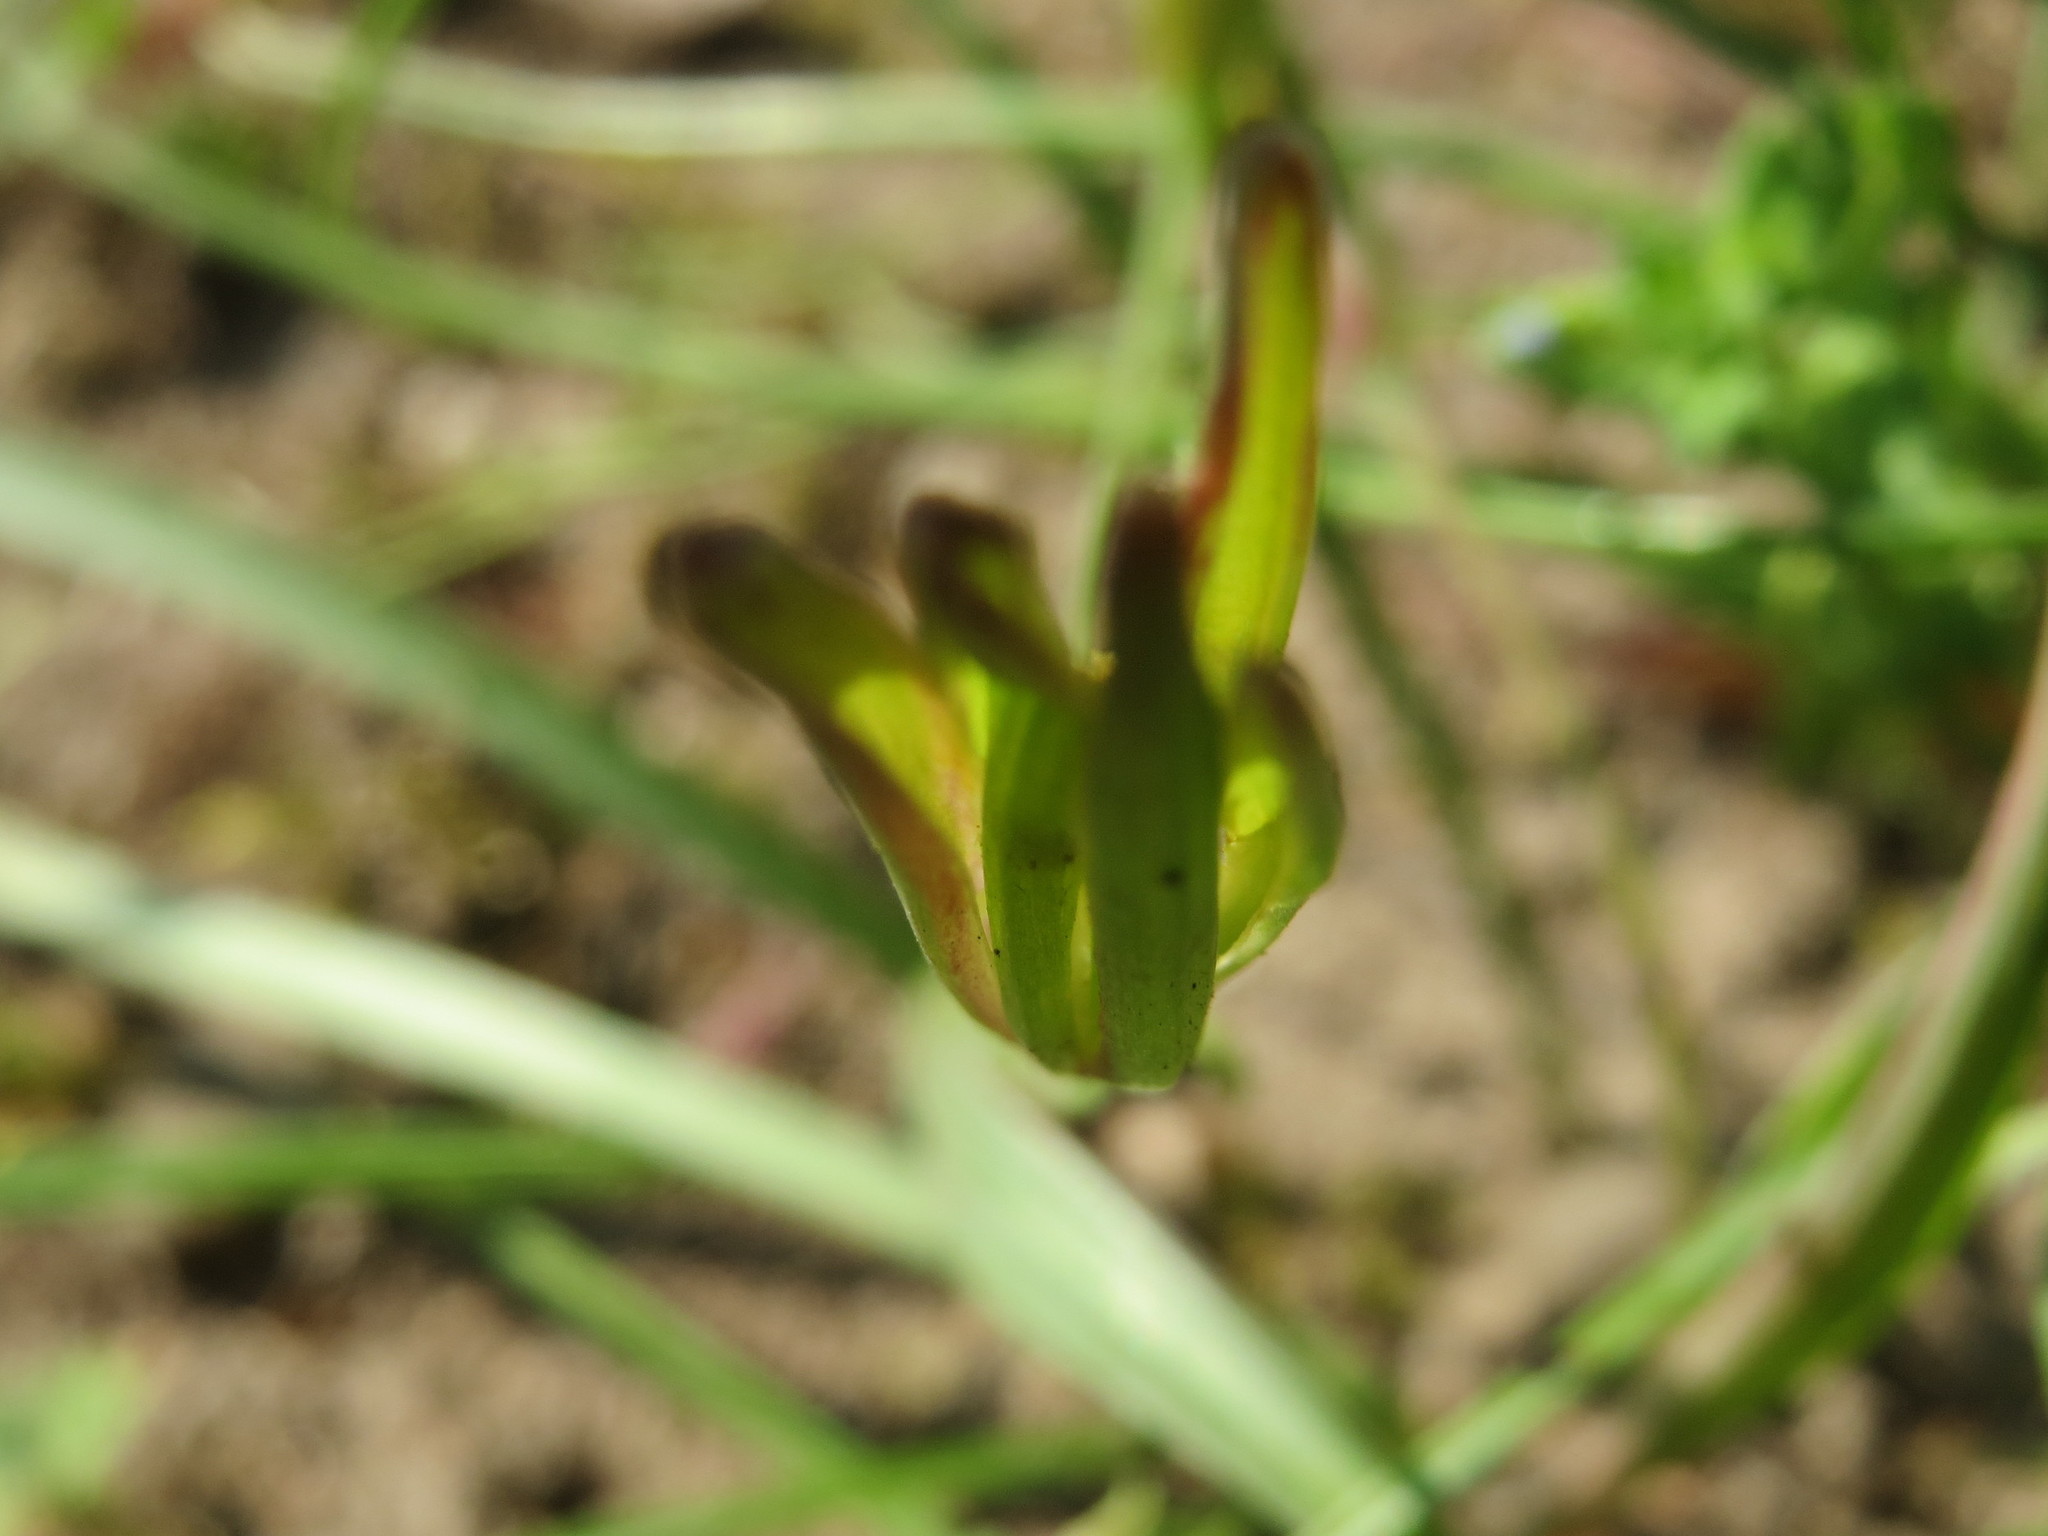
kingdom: Plantae
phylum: Tracheophyta
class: Liliopsida
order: Liliales
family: Liliaceae
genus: Gagea
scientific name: Gagea pratensis
